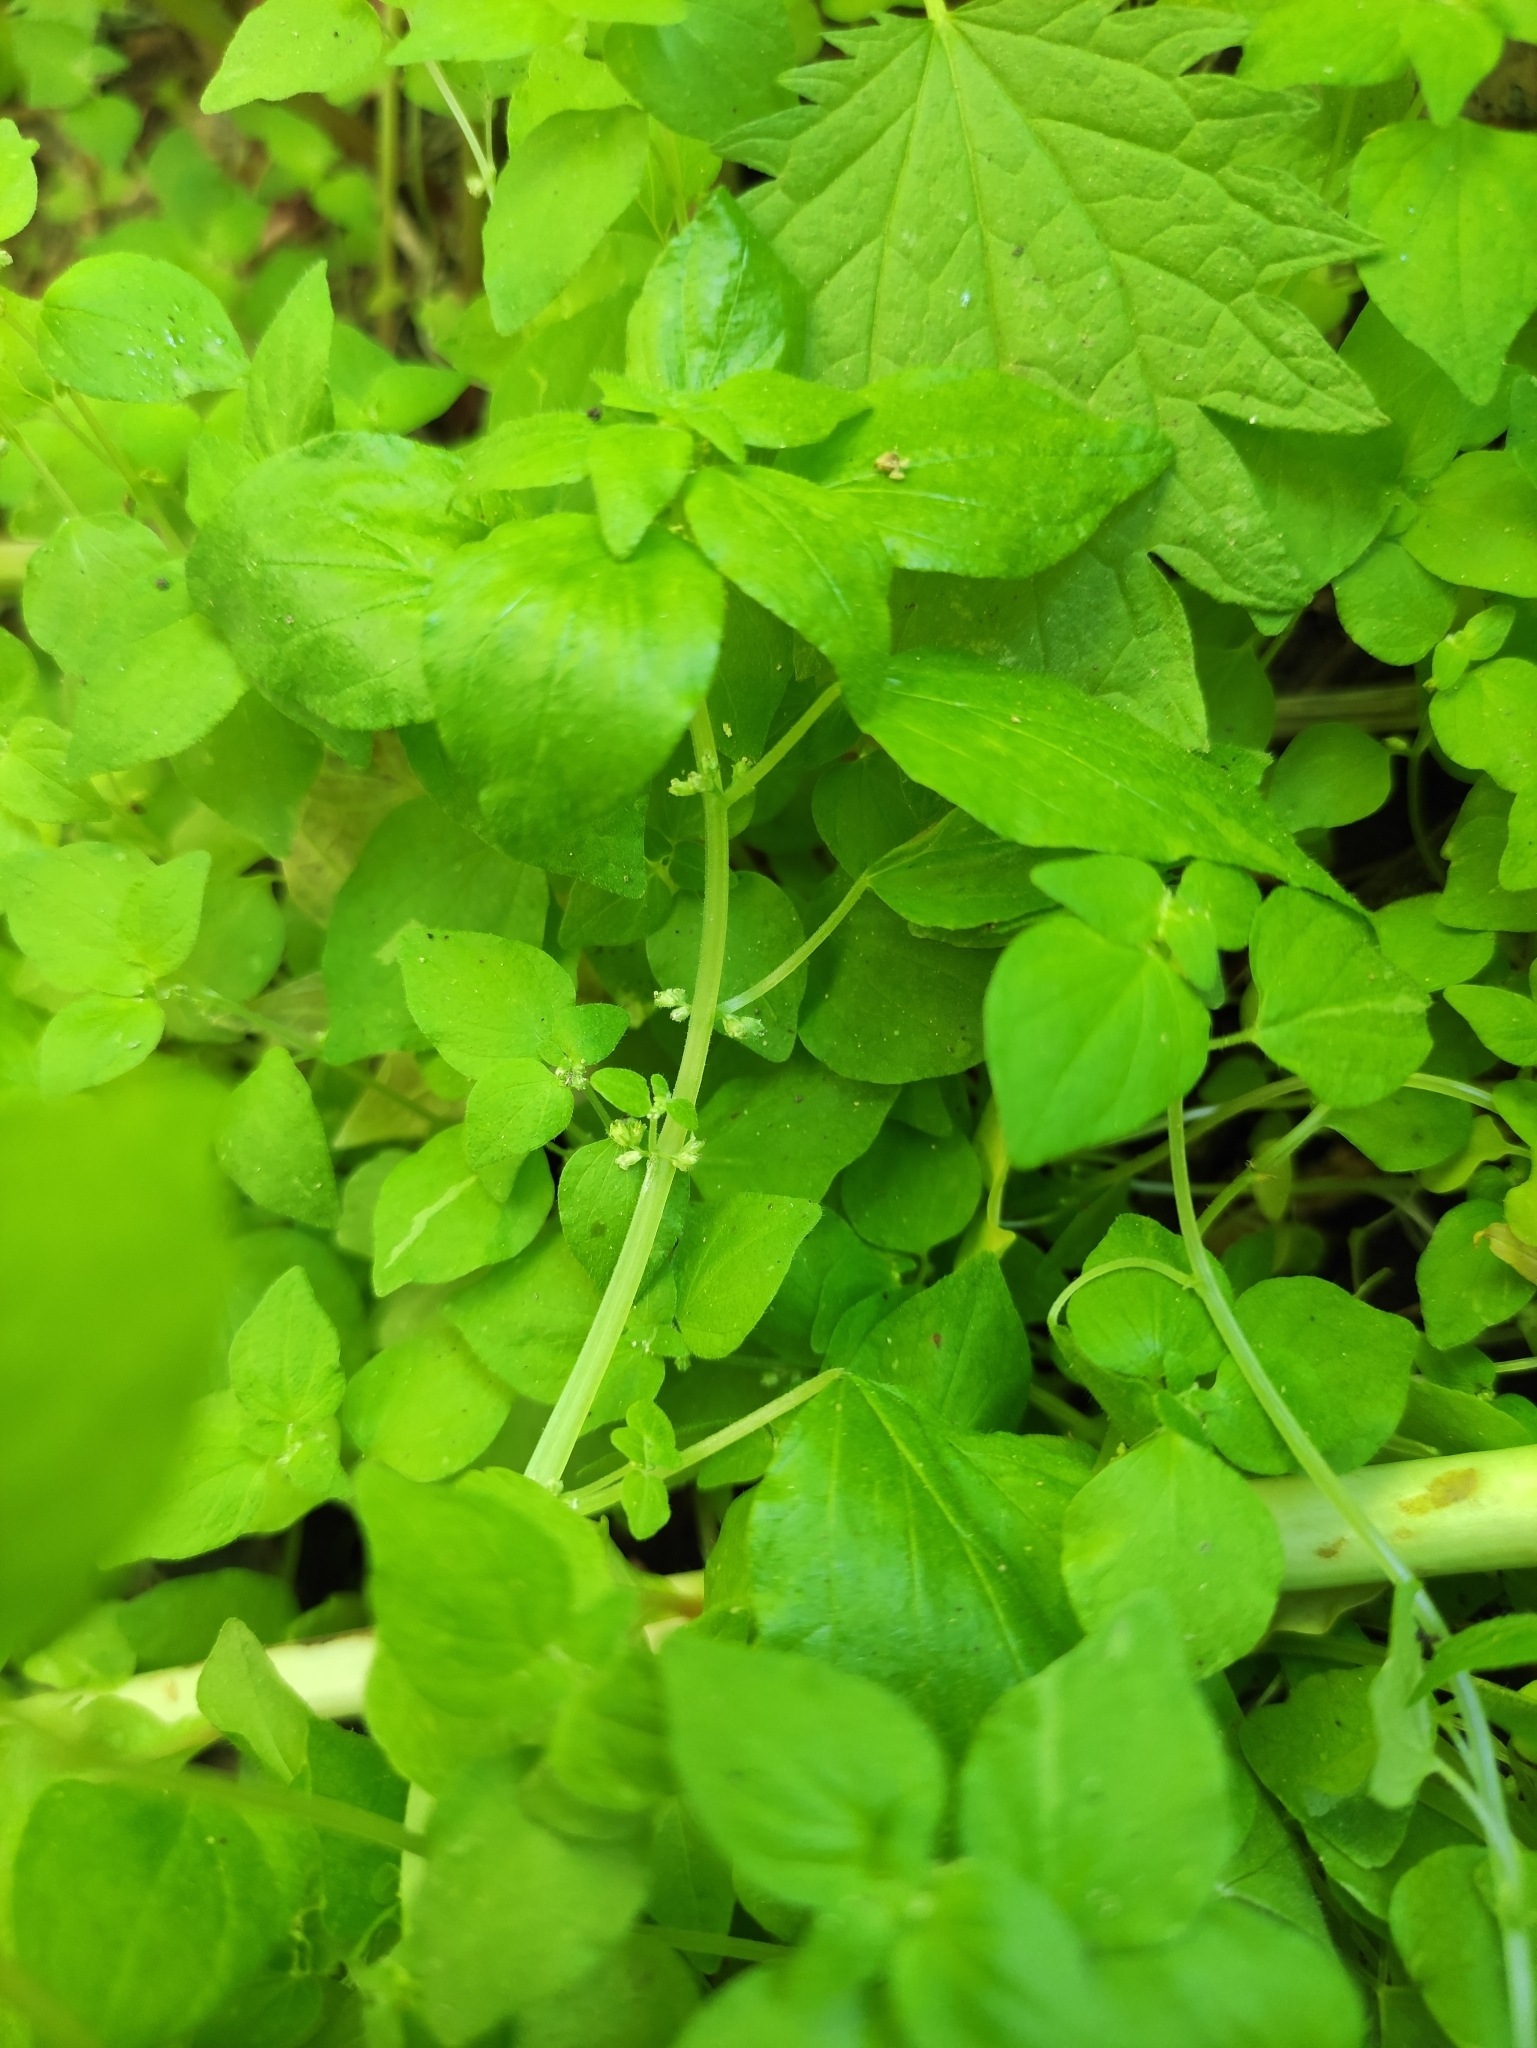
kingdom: Plantae
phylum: Tracheophyta
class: Magnoliopsida
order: Rosales
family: Urticaceae
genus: Parietaria
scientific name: Parietaria micrantha
